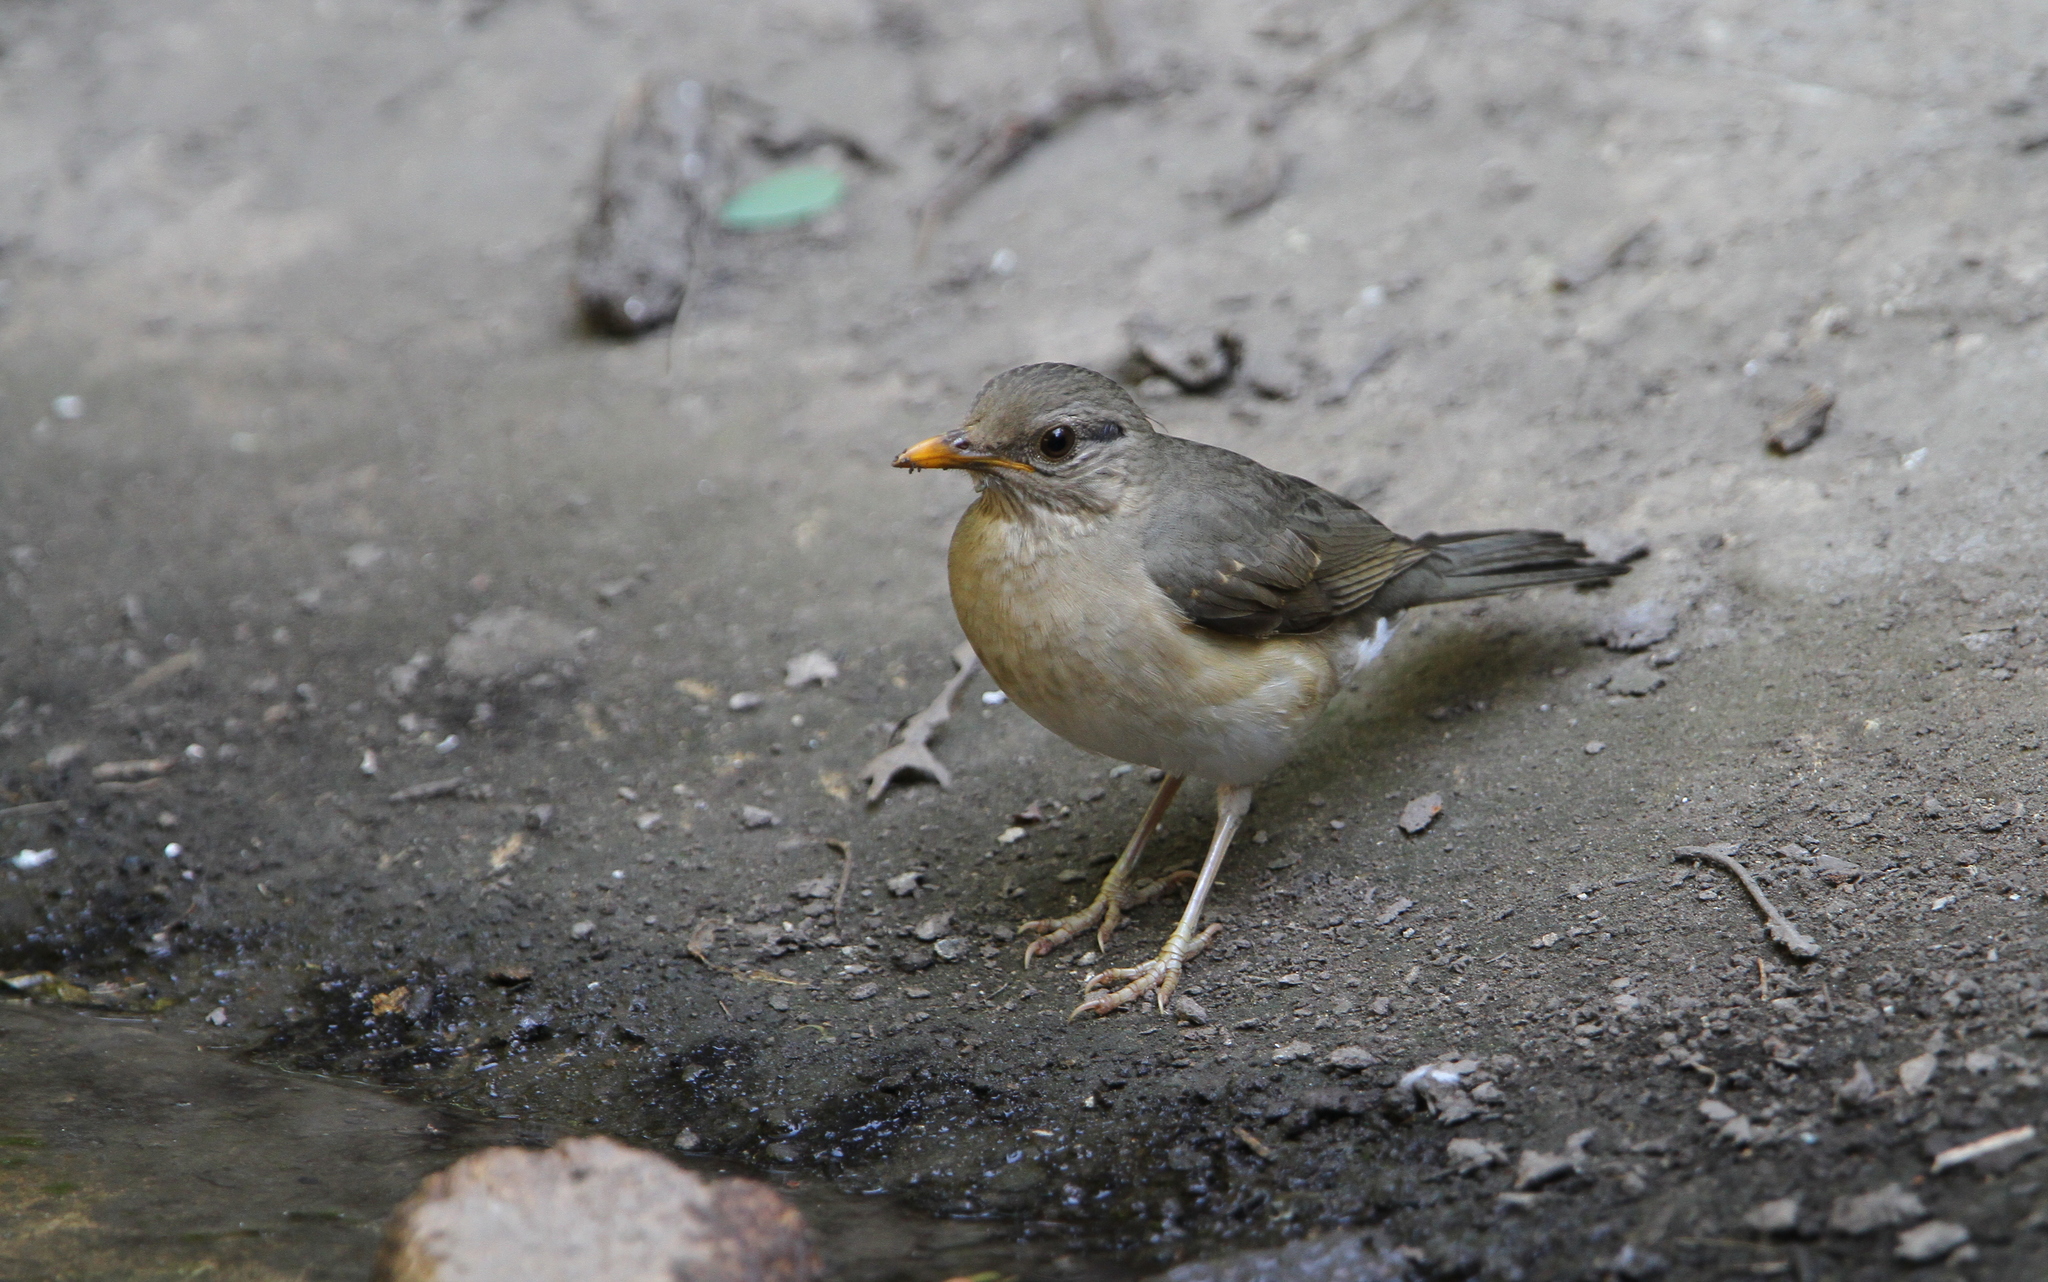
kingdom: Animalia
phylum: Chordata
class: Aves
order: Passeriformes
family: Turdidae
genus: Turdus
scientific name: Turdus pelios
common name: African thrush
